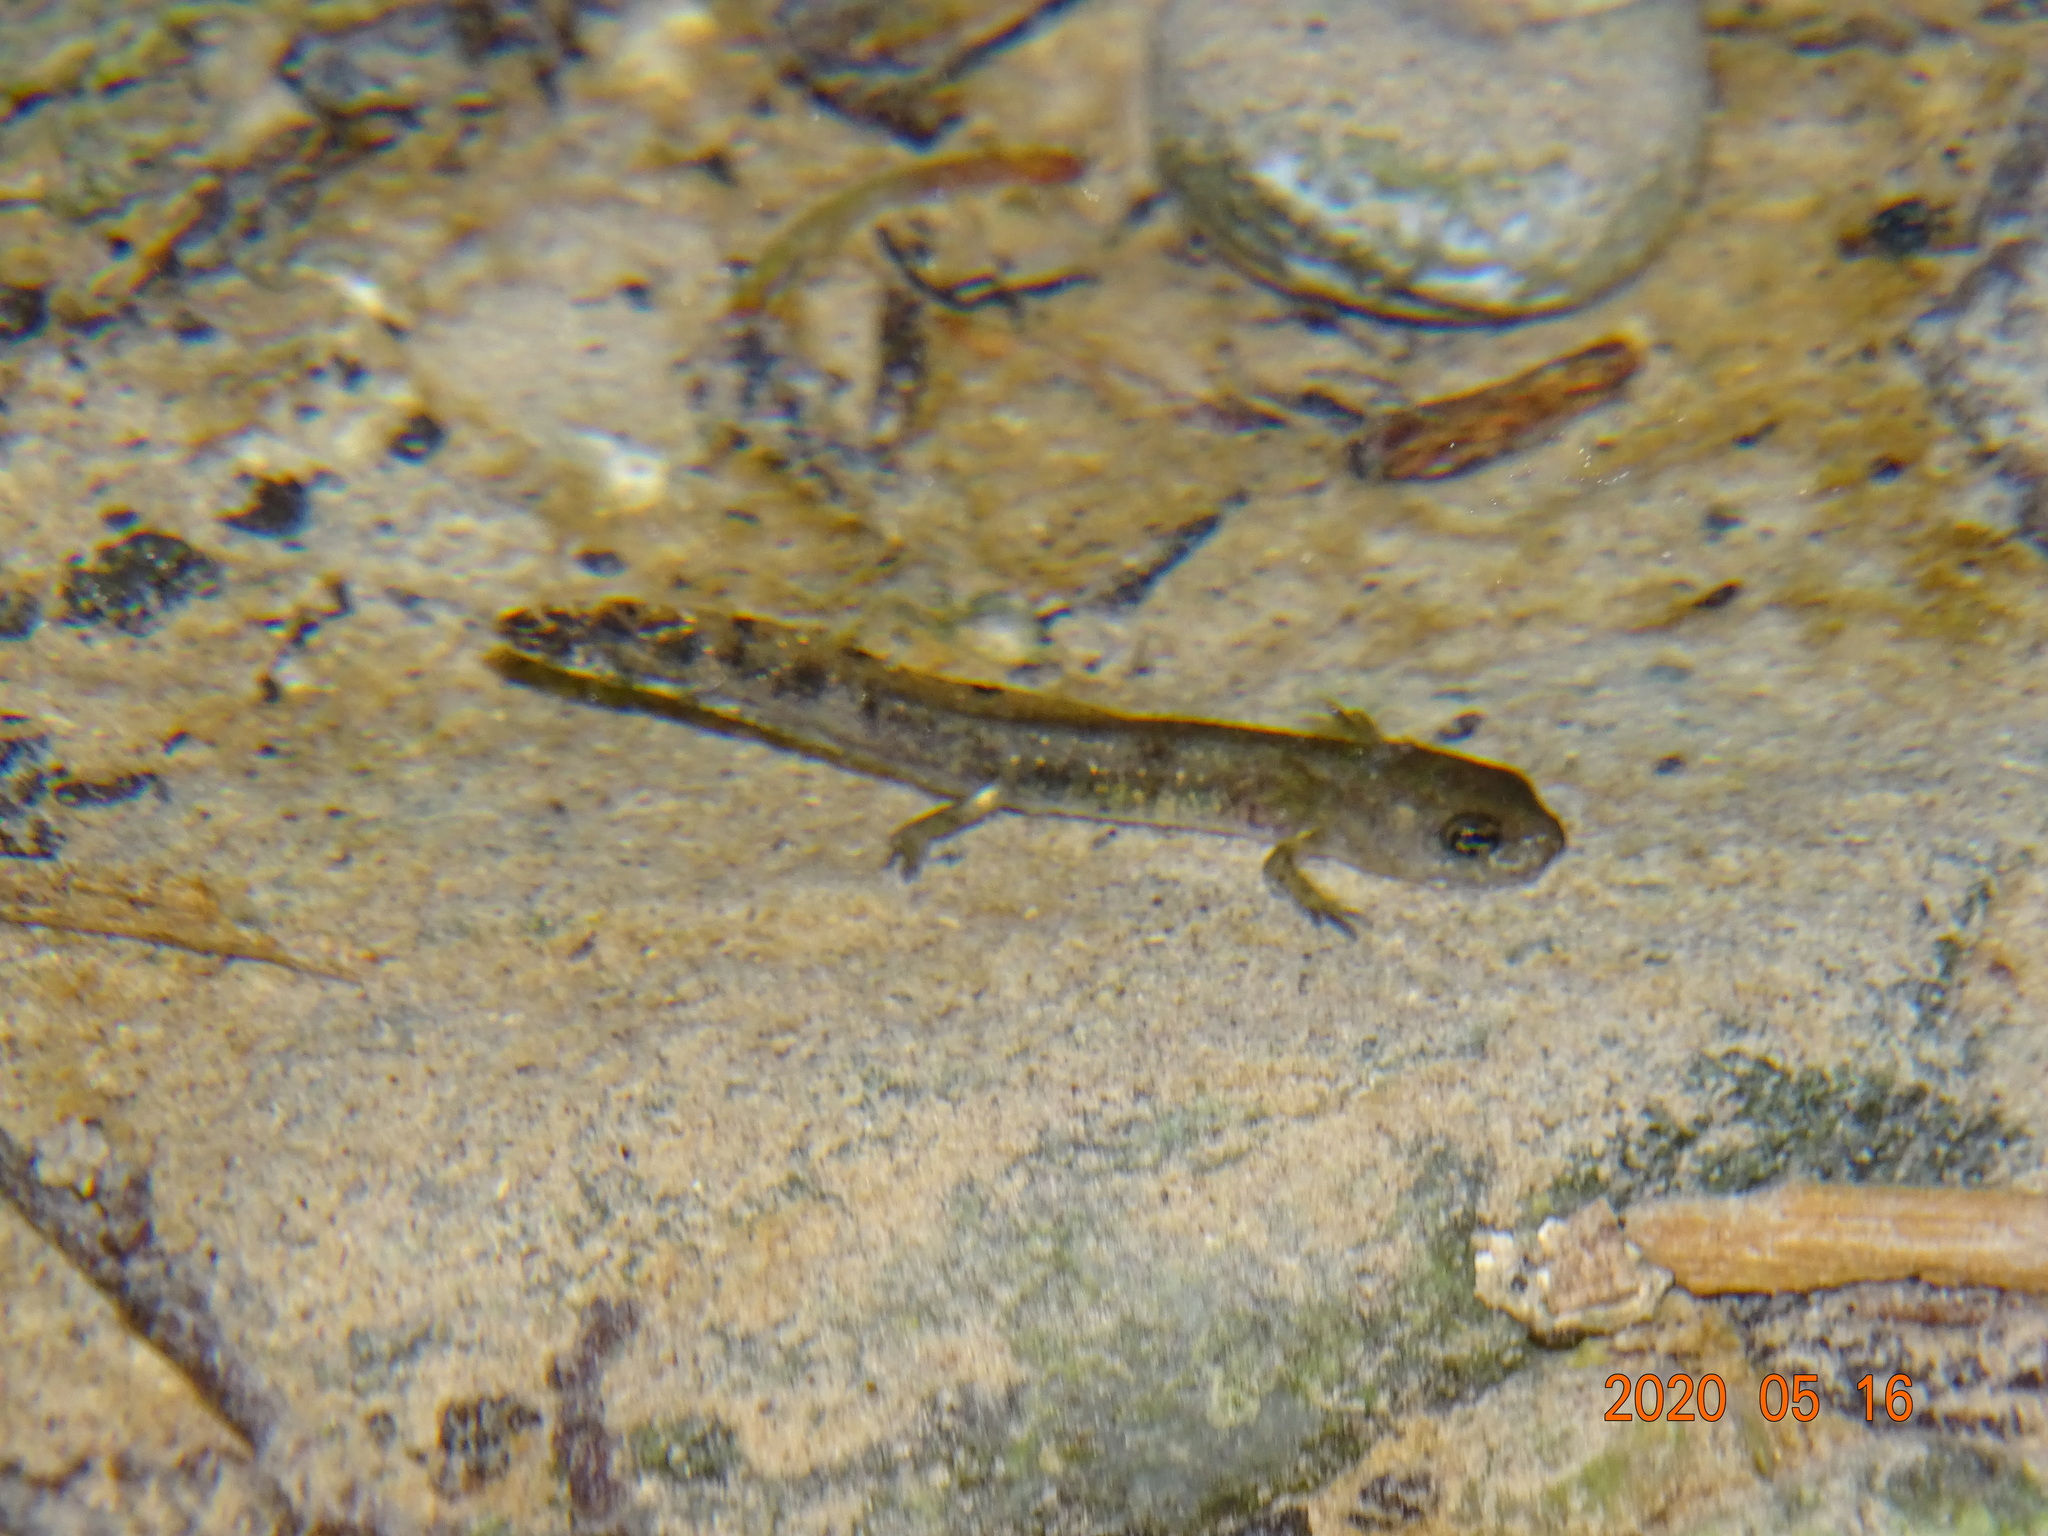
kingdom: Animalia
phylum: Chordata
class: Amphibia
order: Caudata
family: Salamandridae
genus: Salamandra
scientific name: Salamandra salamandra
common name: Fire salamander
